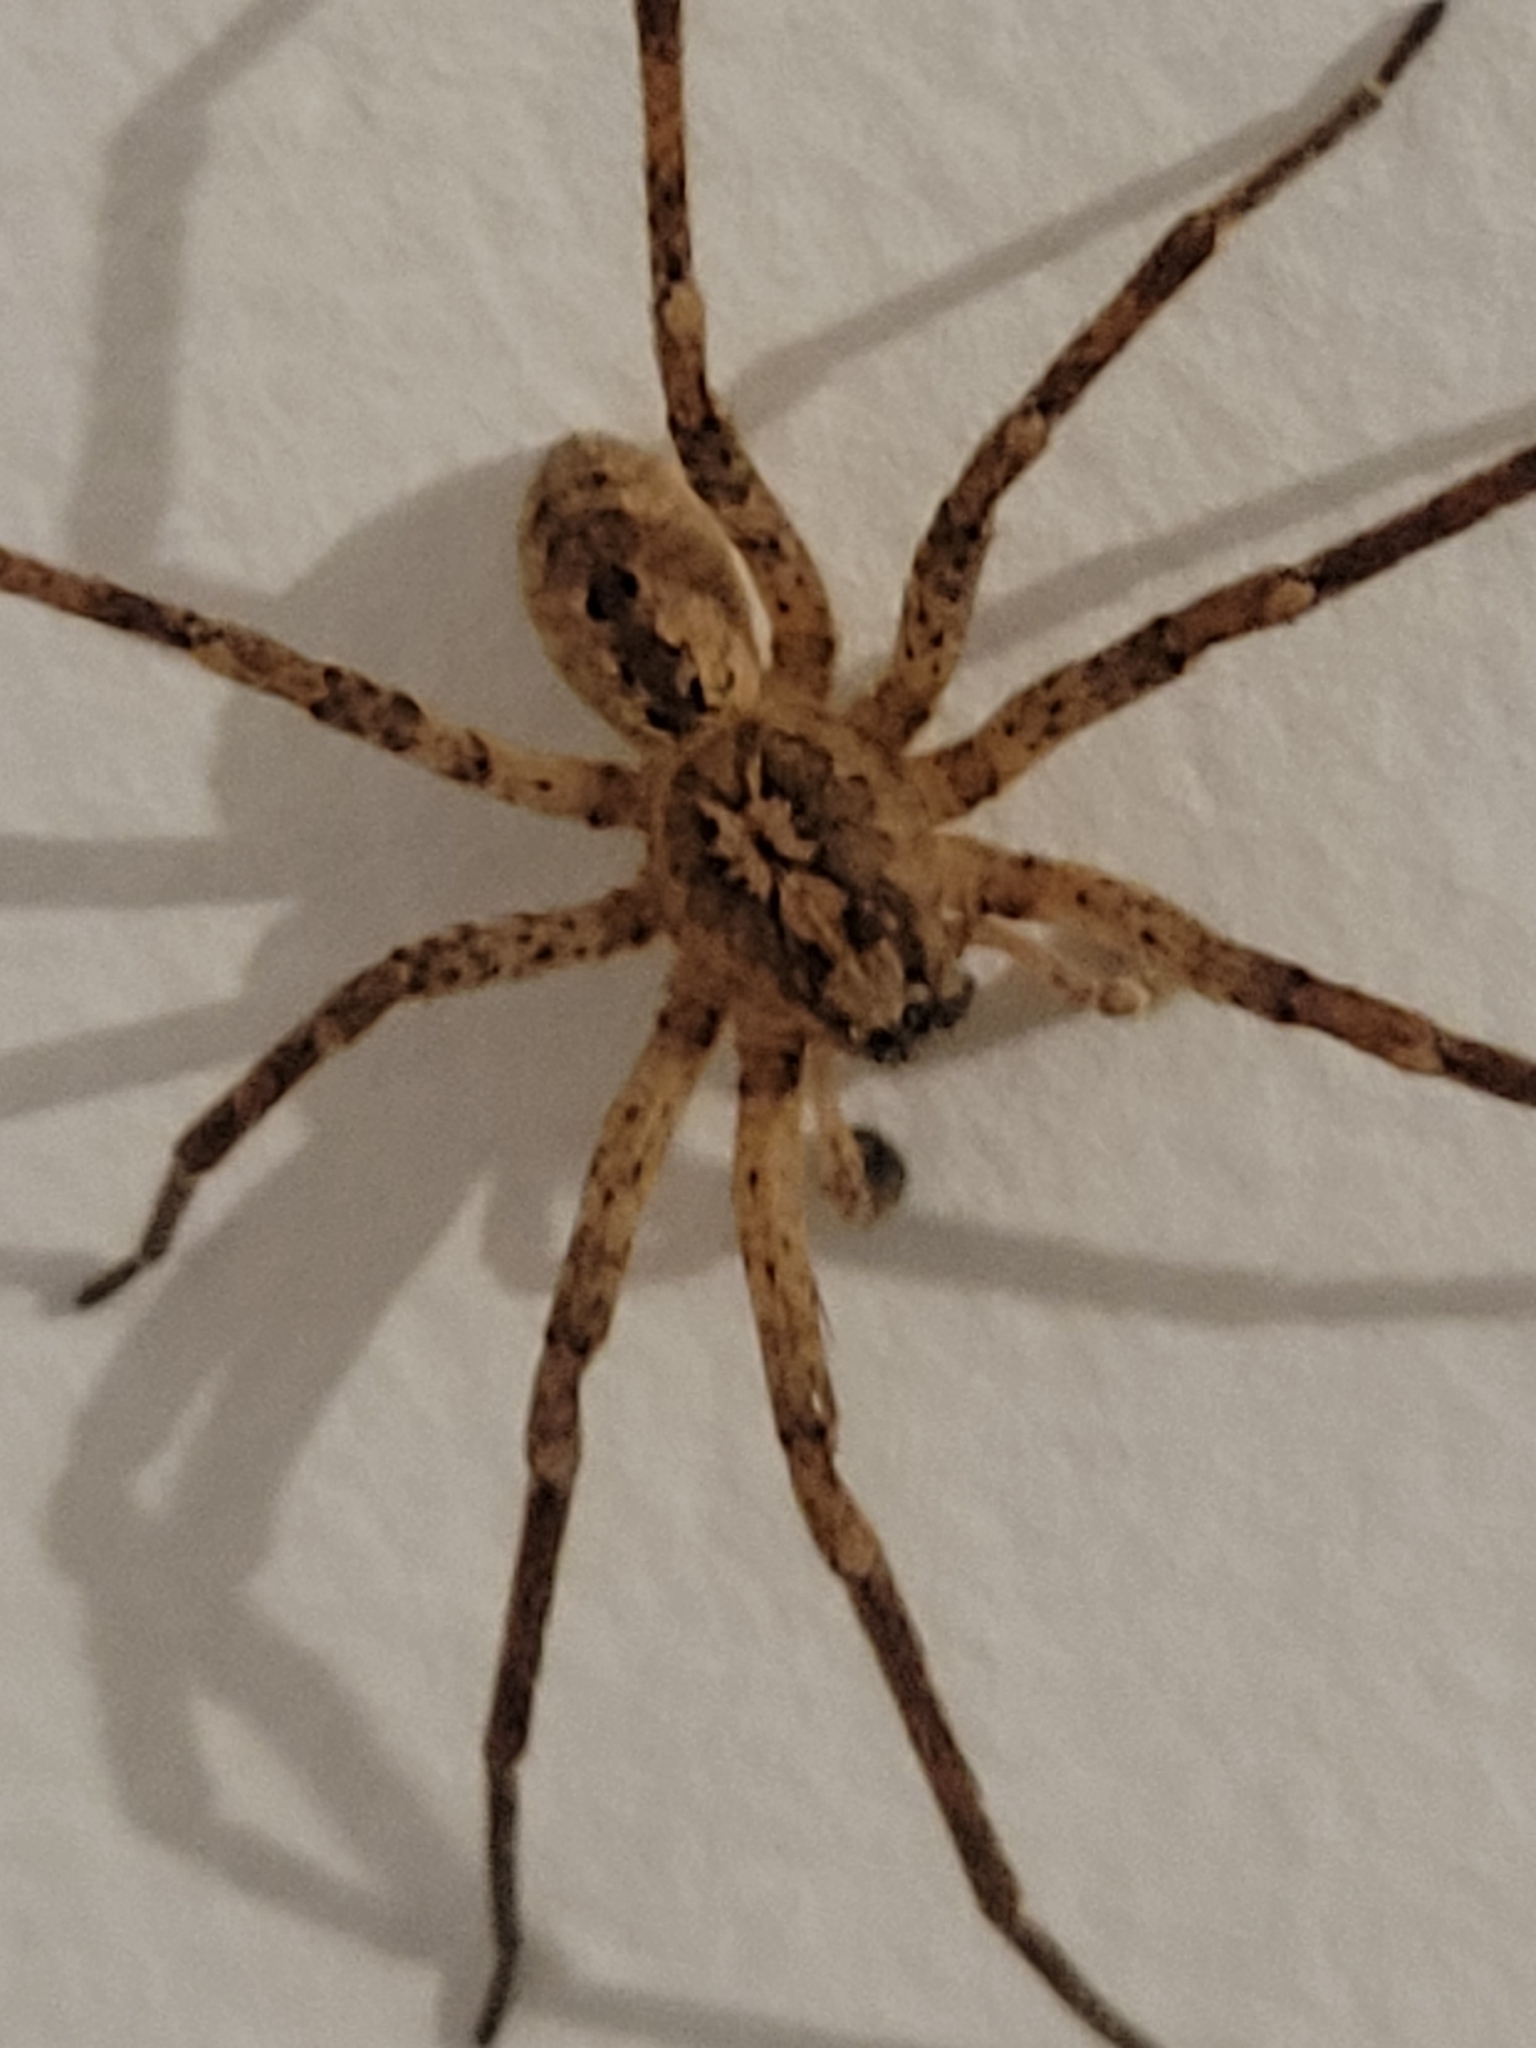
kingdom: Animalia
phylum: Arthropoda
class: Arachnida
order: Araneae
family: Zoropsidae
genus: Zoropsis
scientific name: Zoropsis spinimana
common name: Zoropsid spider
